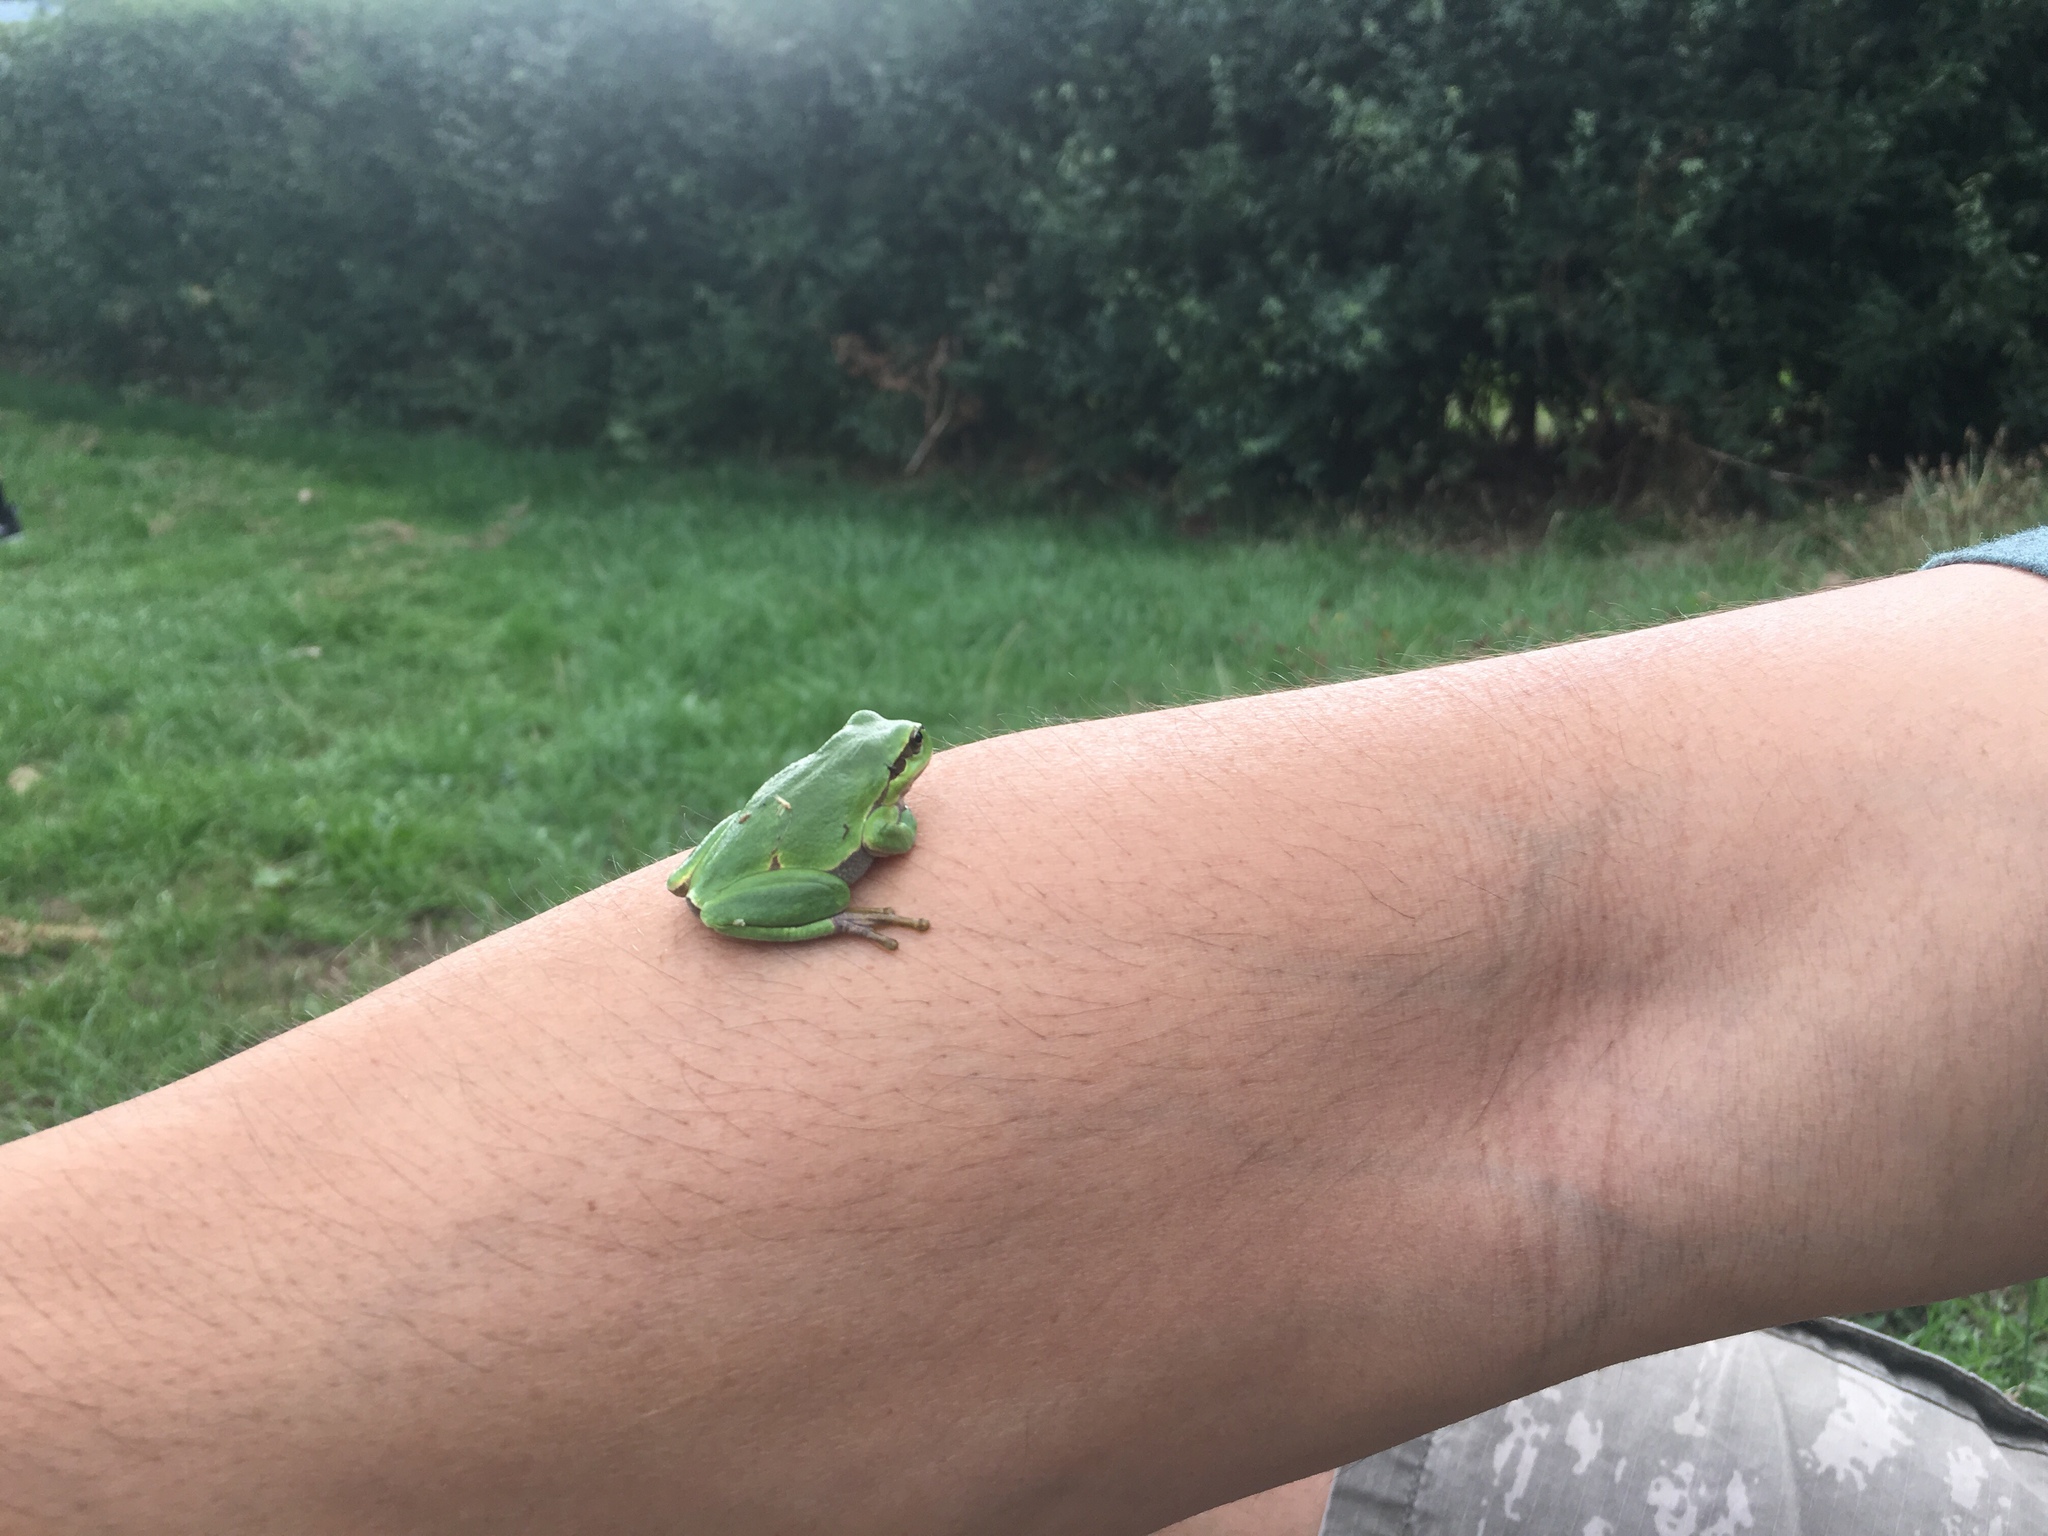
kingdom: Animalia
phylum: Chordata
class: Amphibia
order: Anura
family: Hylidae
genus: Hyla
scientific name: Hyla arborea
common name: Common tree frog
